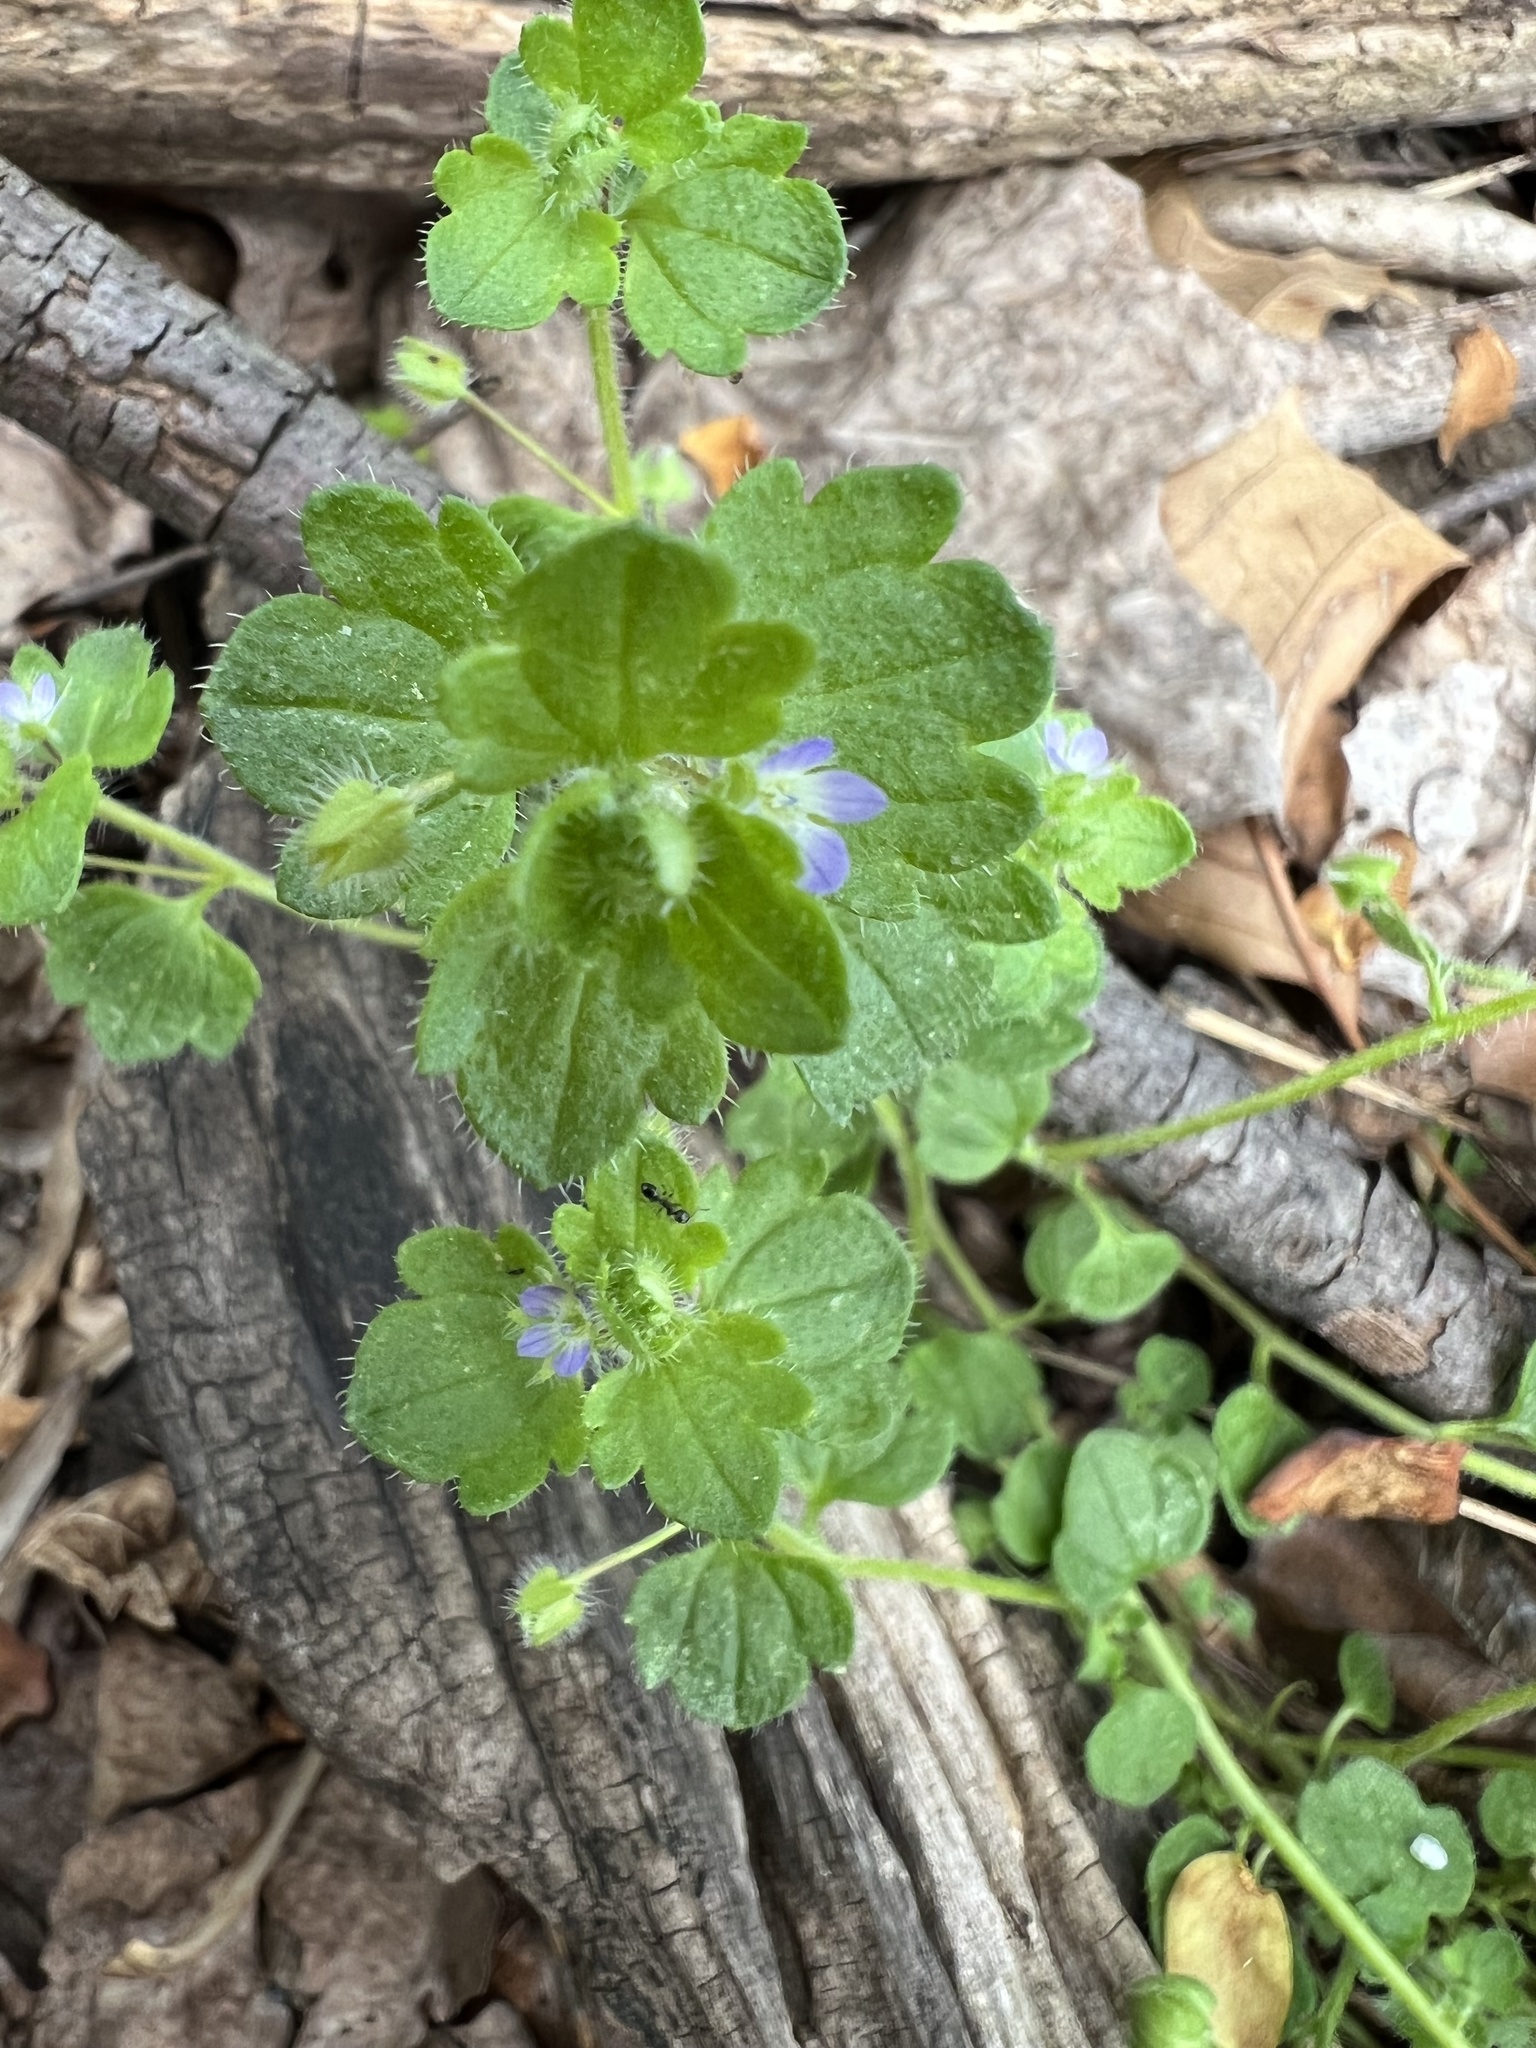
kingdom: Plantae
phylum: Tracheophyta
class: Magnoliopsida
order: Lamiales
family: Plantaginaceae
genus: Veronica
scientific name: Veronica hederifolia
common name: Ivy-leaved speedwell
